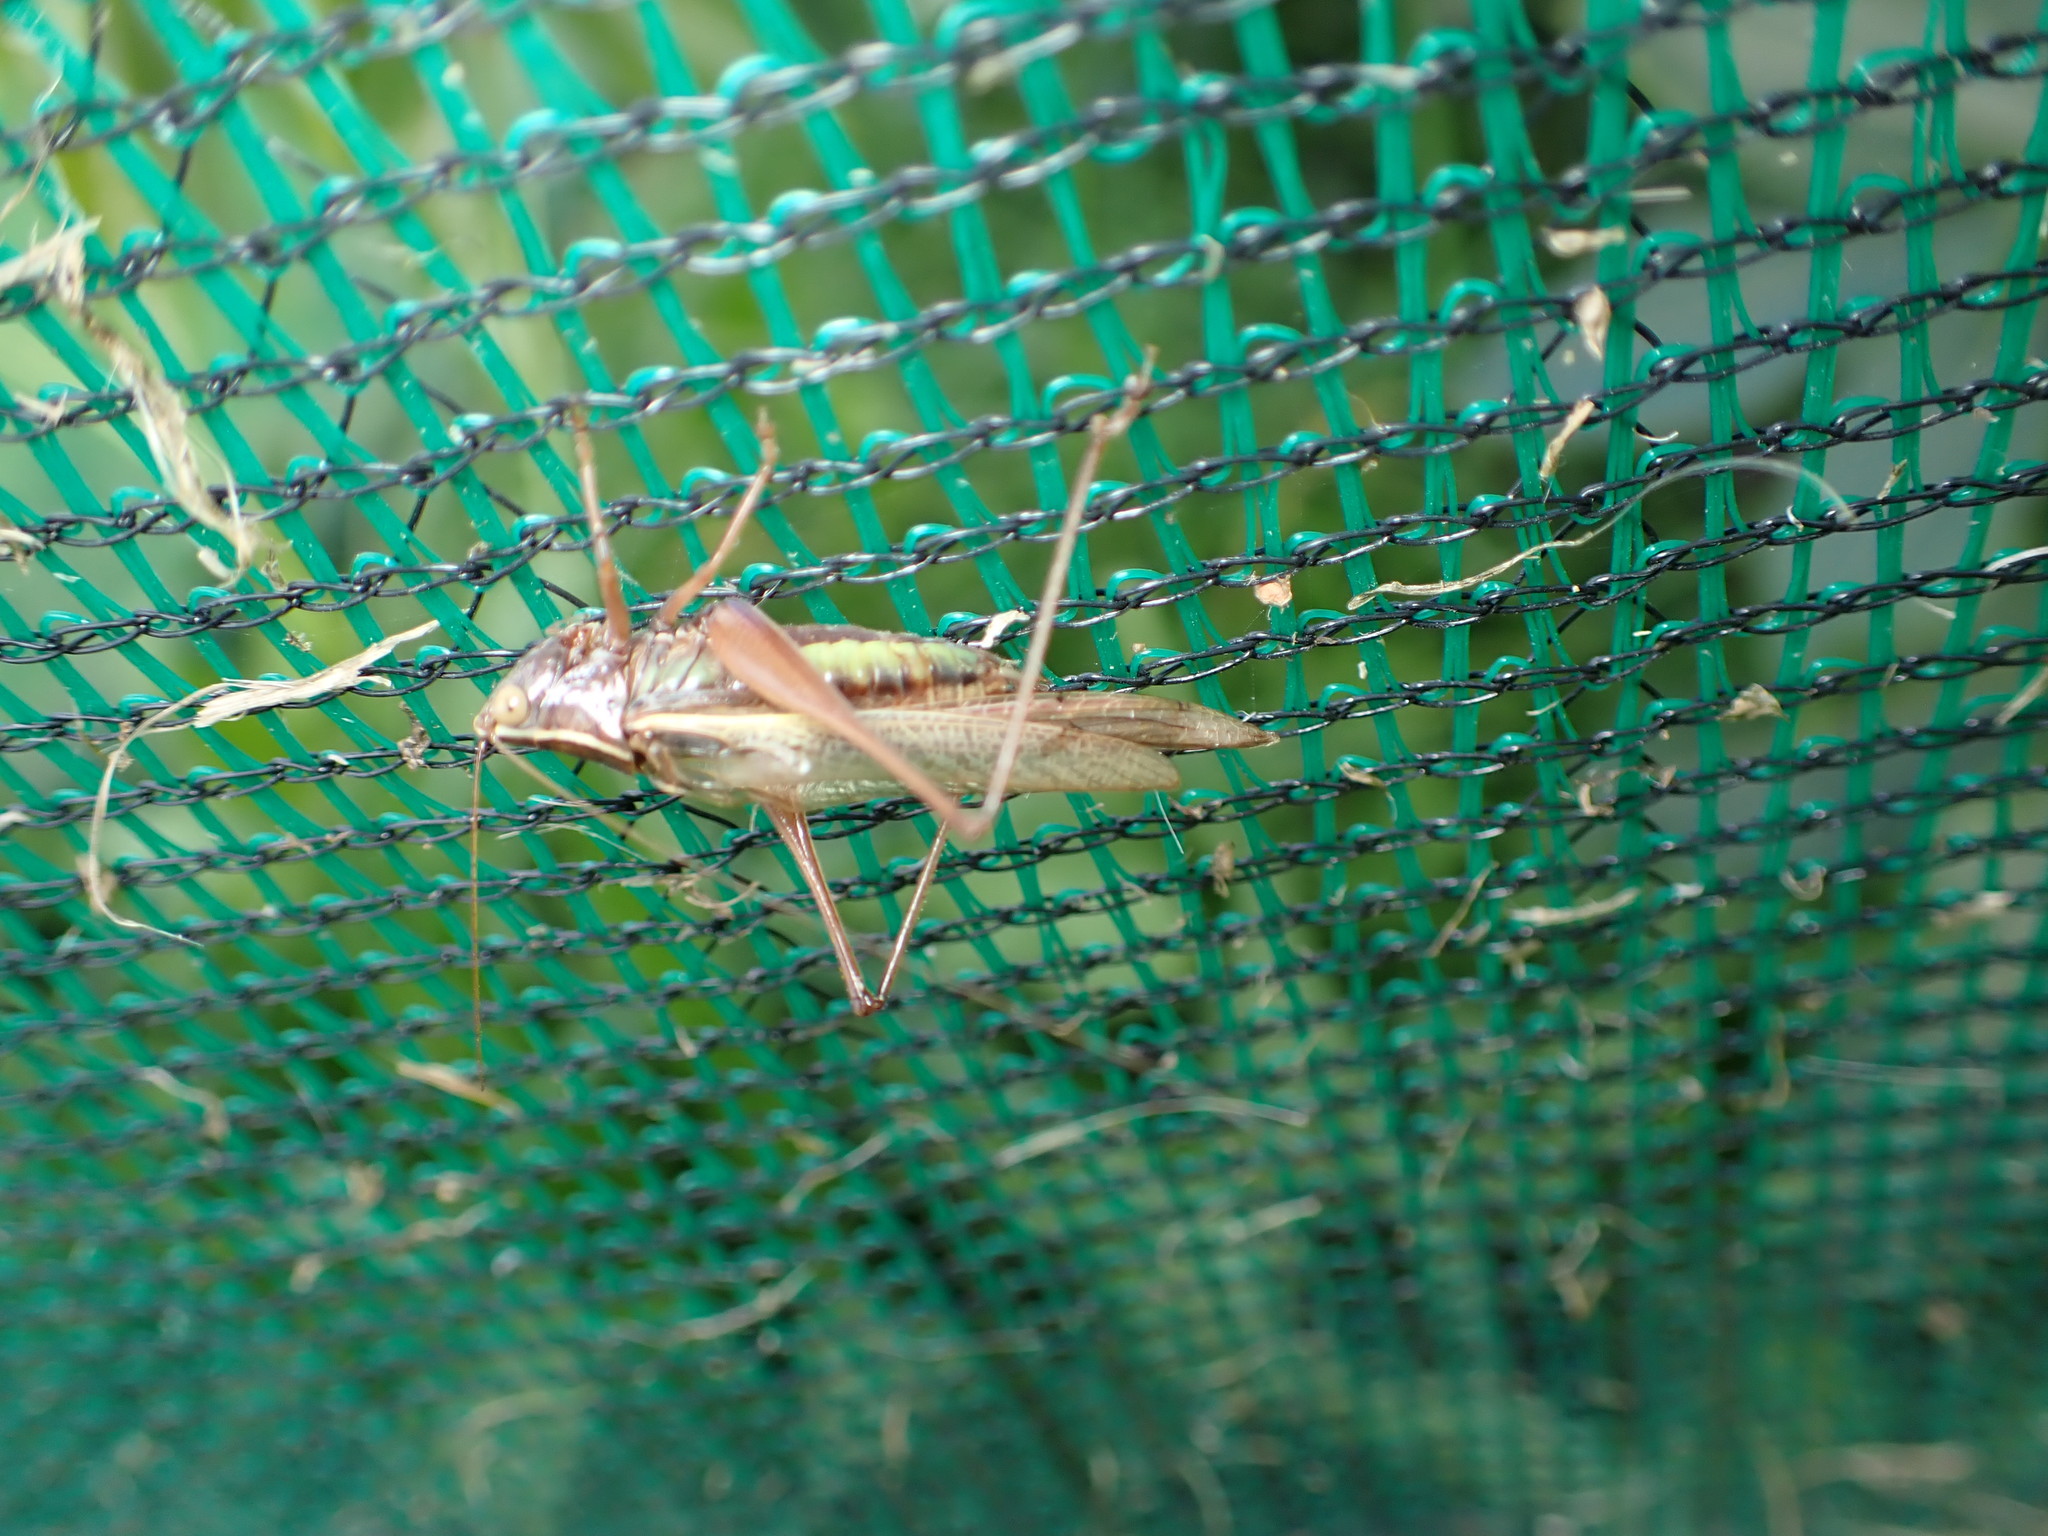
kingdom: Animalia
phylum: Arthropoda
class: Insecta
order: Orthoptera
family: Tettigoniidae
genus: Conocephalus
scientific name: Conocephalus albescens
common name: Whitish meadow katydid
